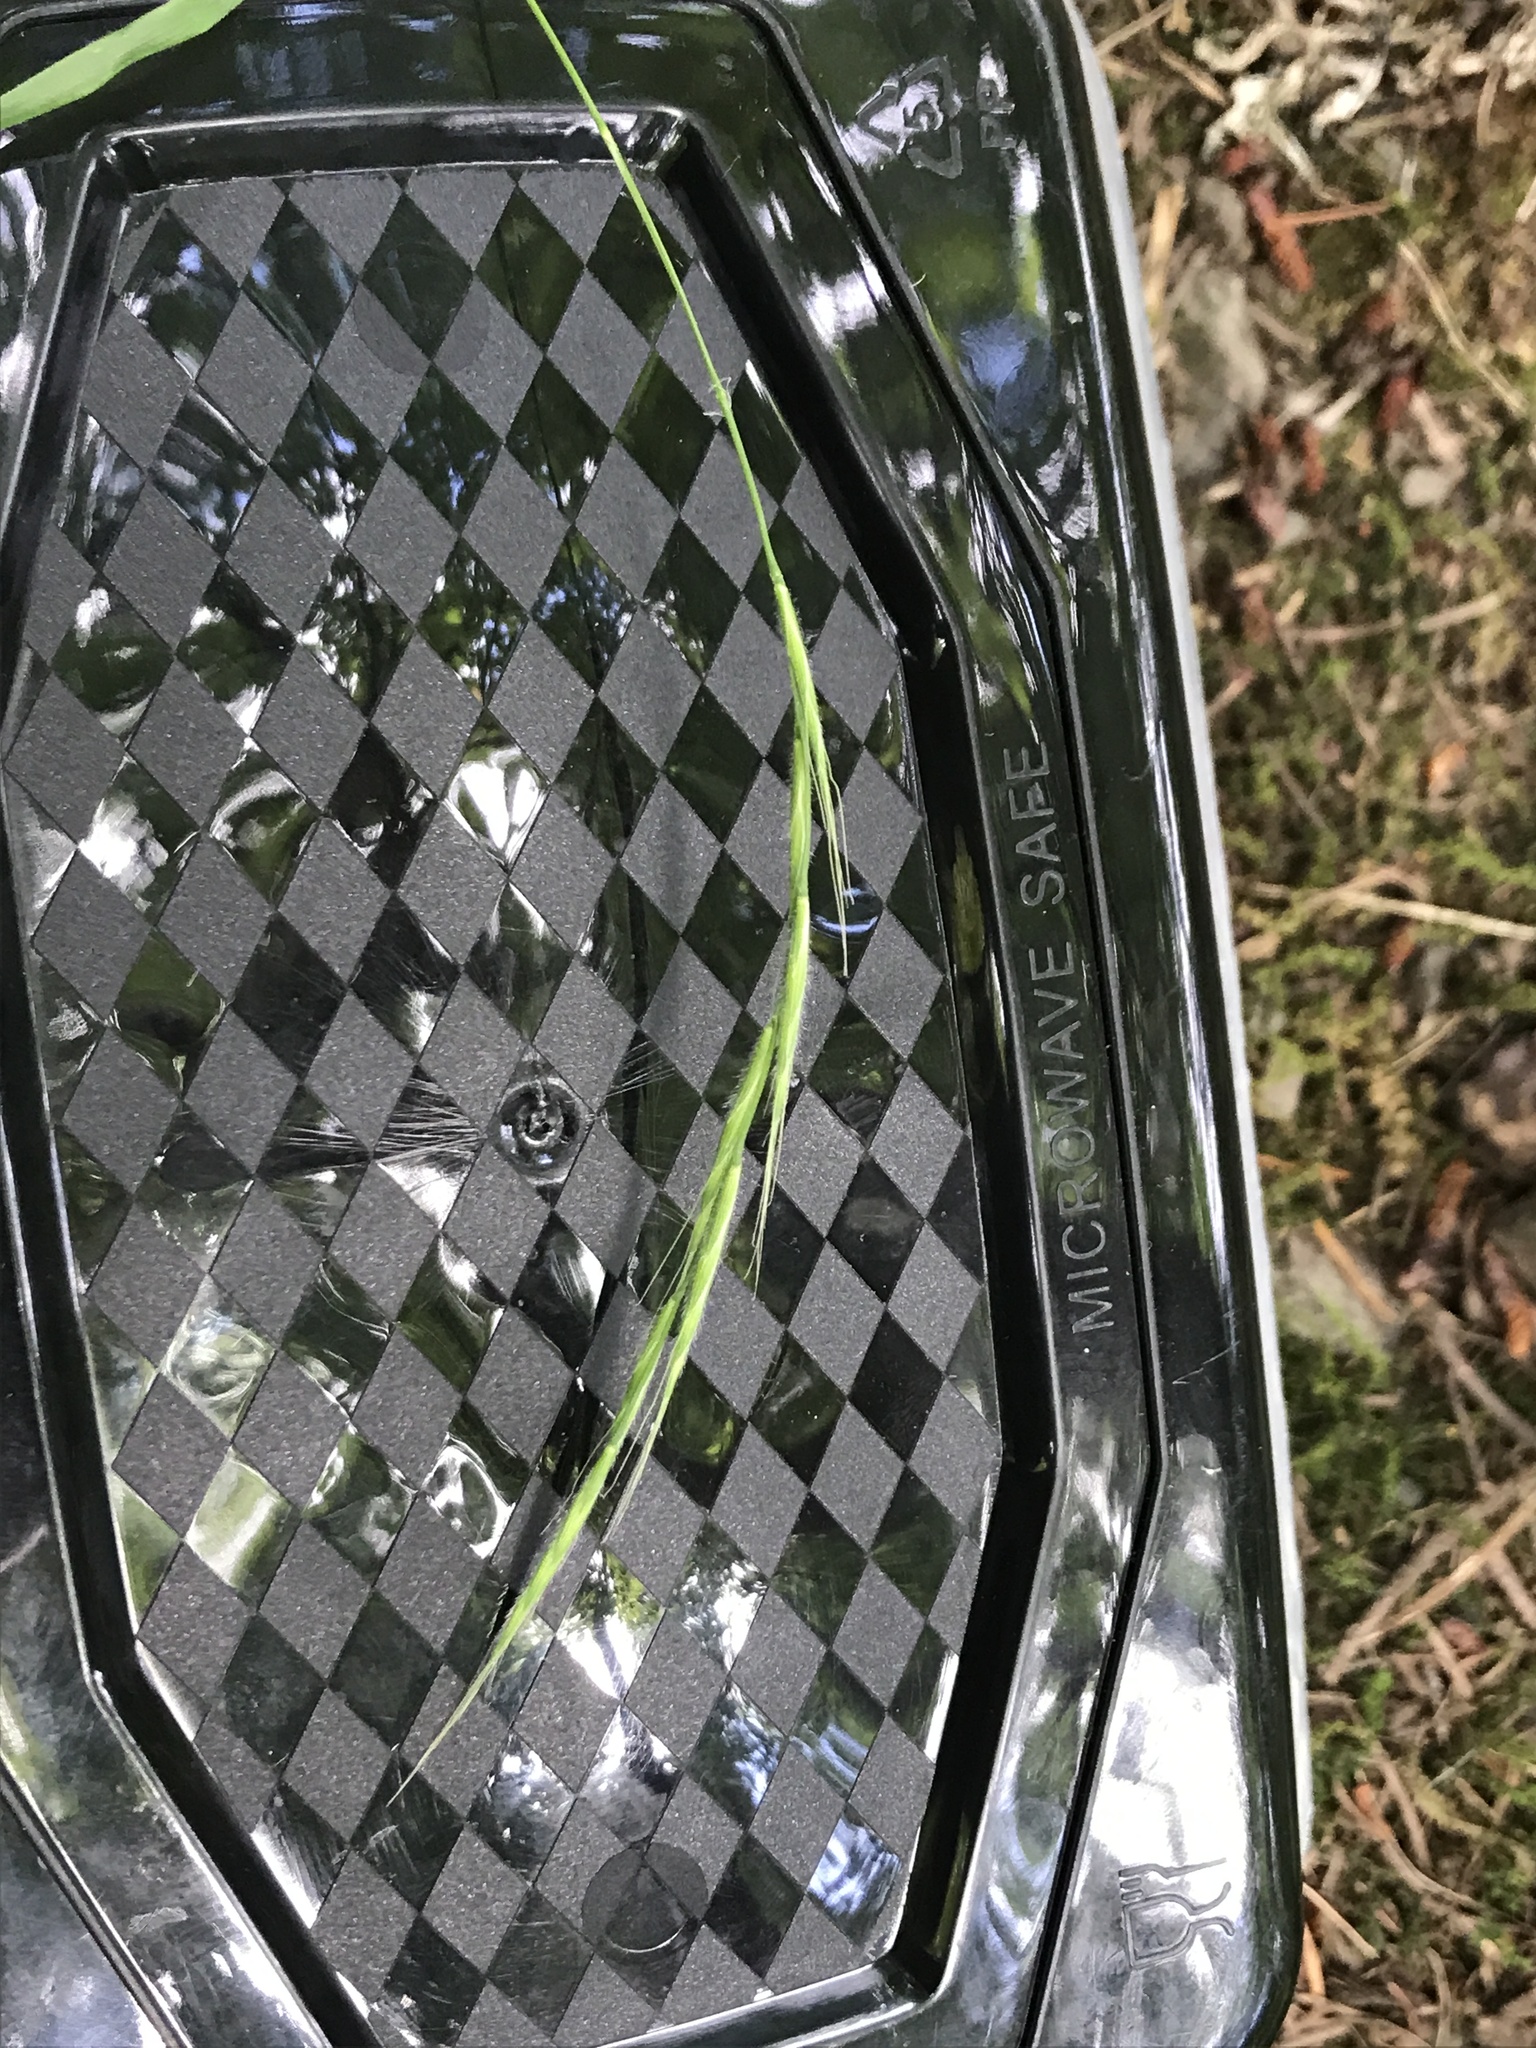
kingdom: Plantae
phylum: Tracheophyta
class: Liliopsida
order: Poales
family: Poaceae
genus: Brachypodium
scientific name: Brachypodium sylvaticum
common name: False-brome
